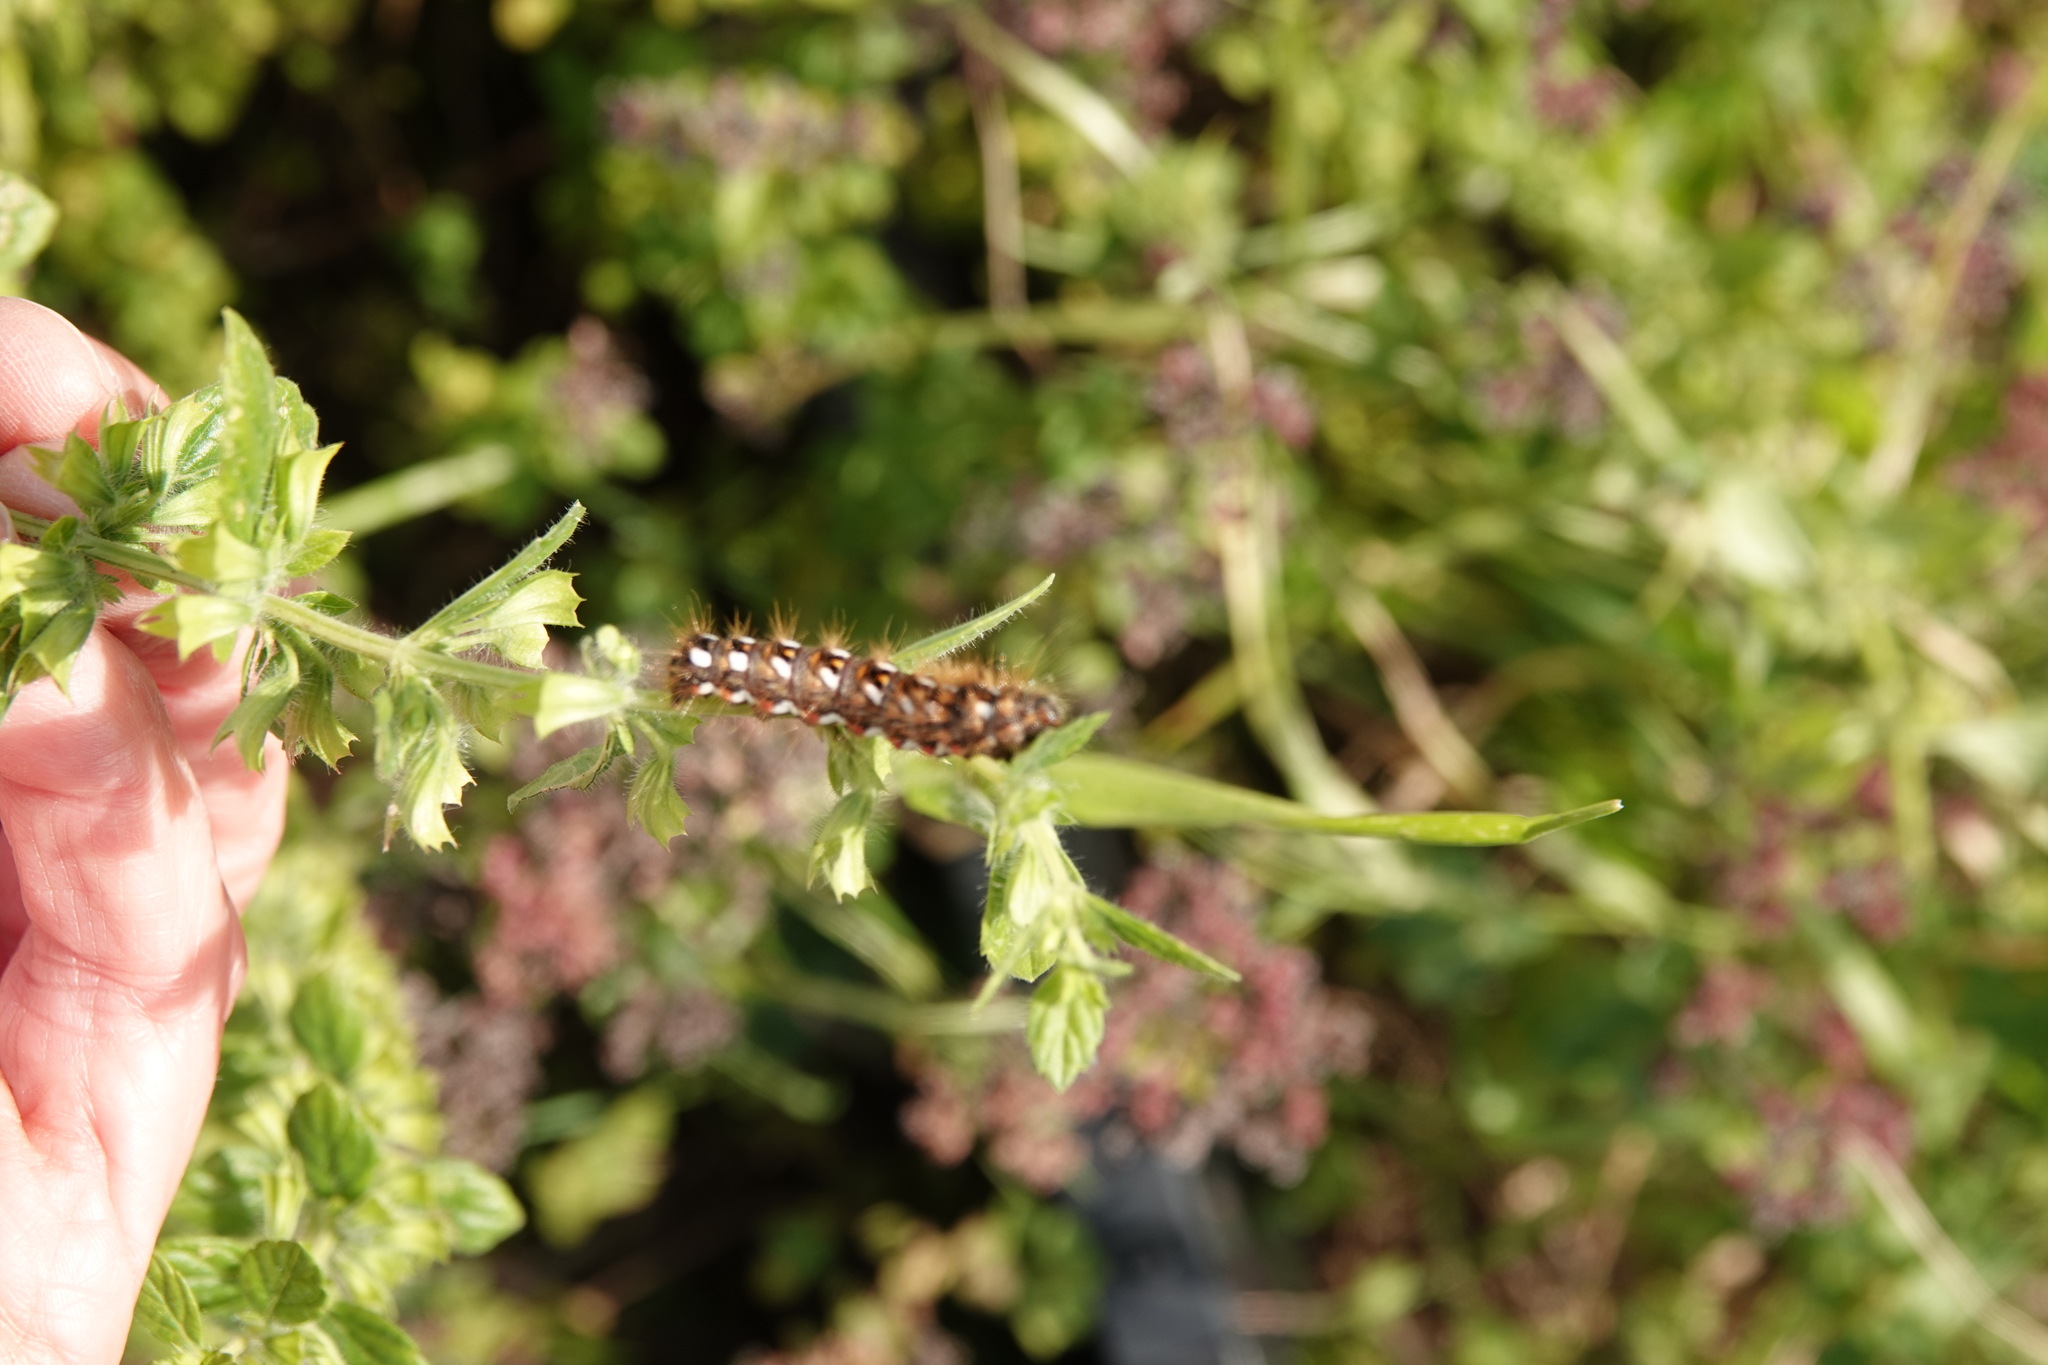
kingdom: Animalia
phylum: Arthropoda
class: Insecta
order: Lepidoptera
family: Noctuidae
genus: Acronicta
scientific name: Acronicta rumicis
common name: Knot grass
